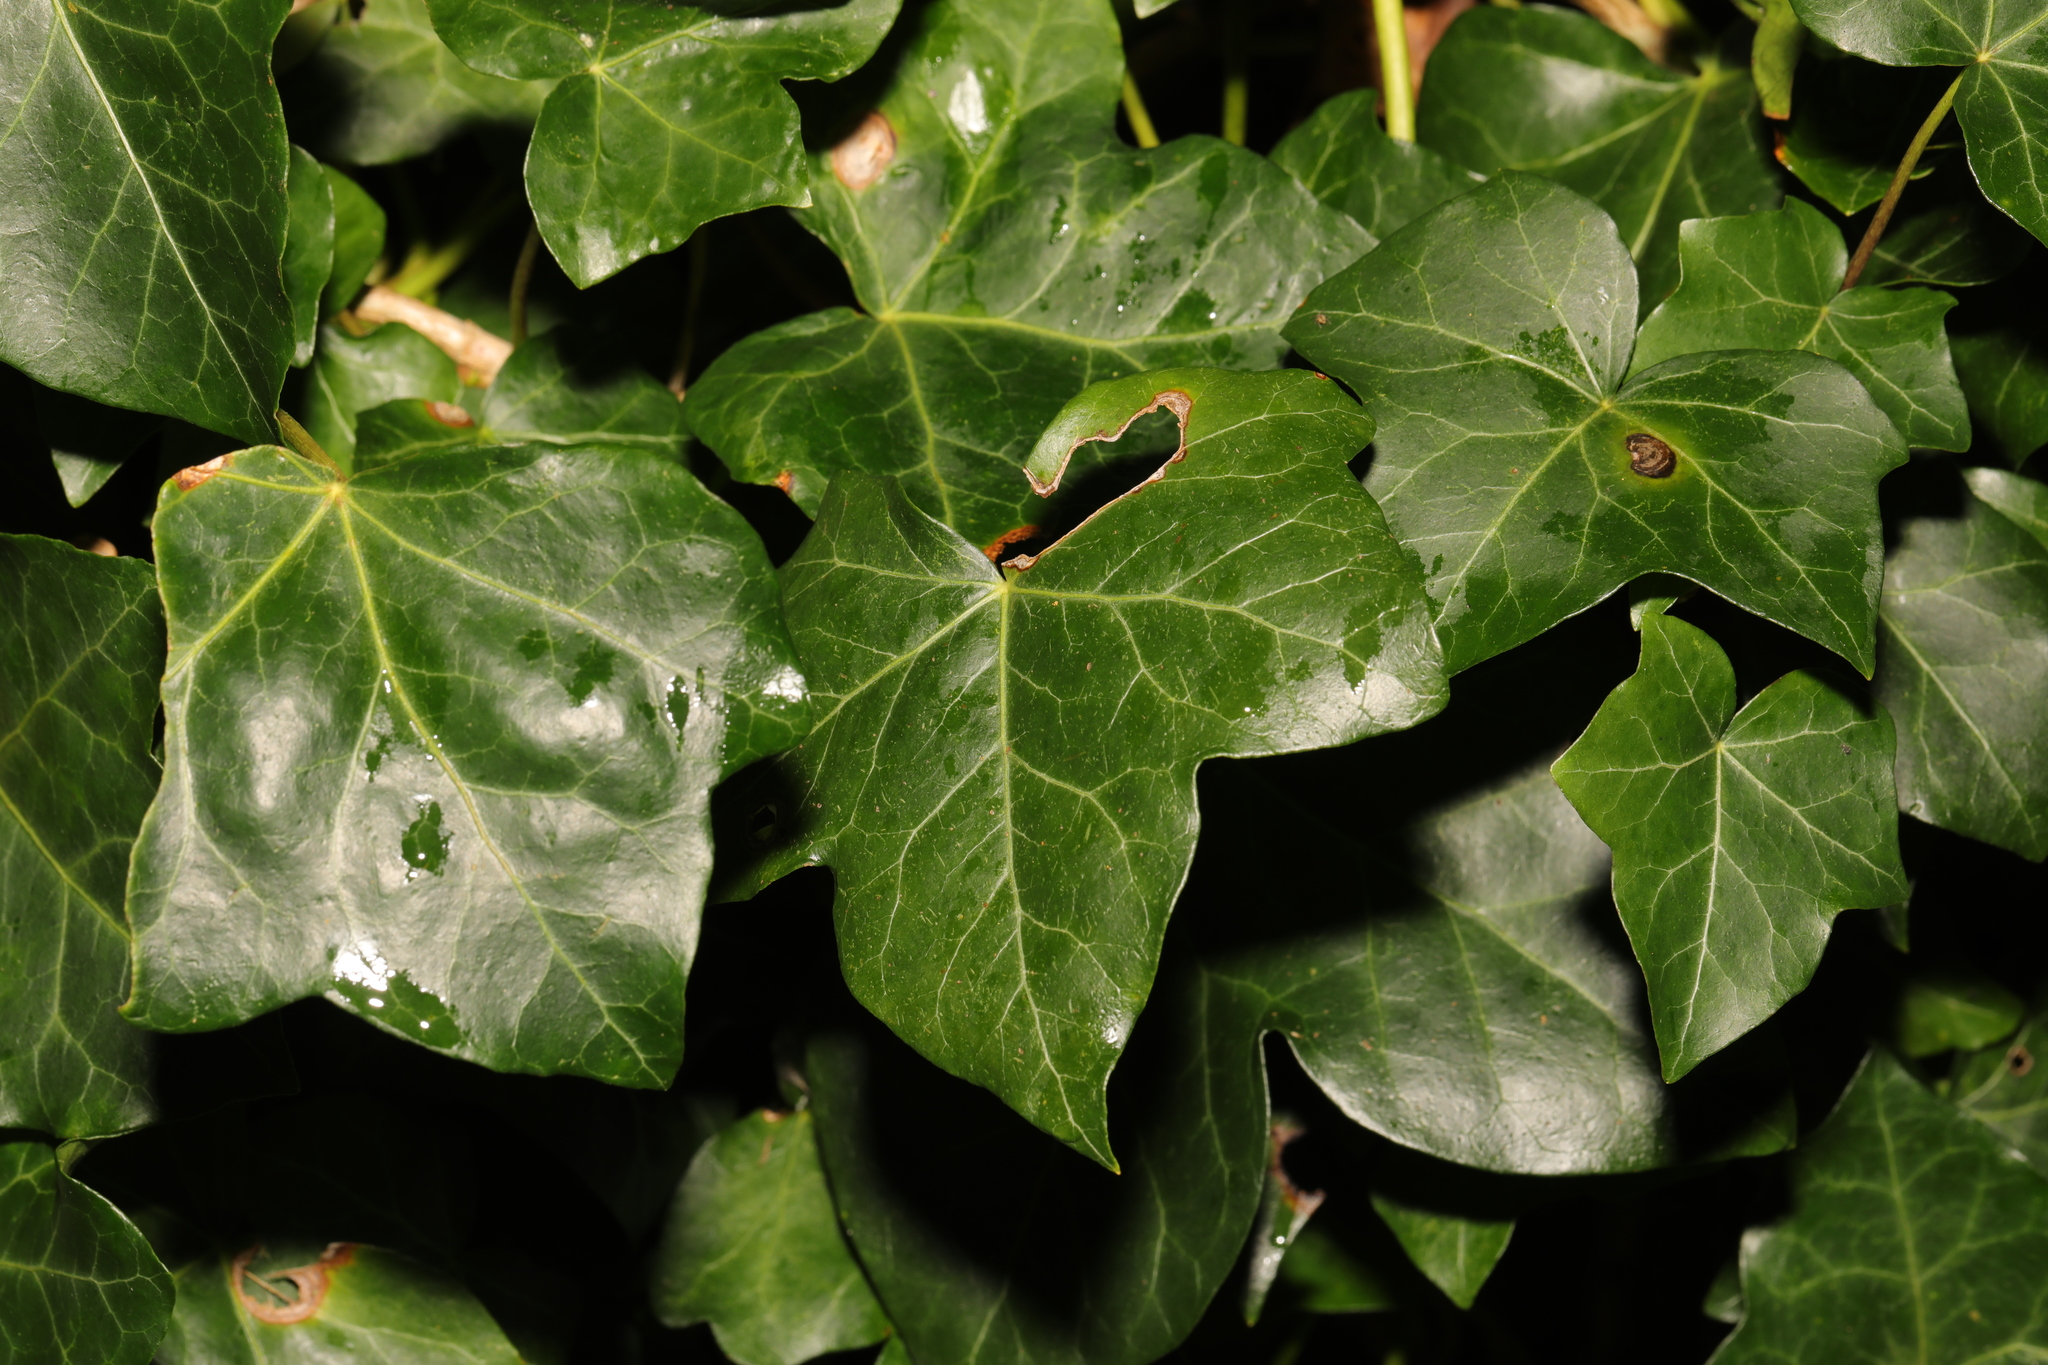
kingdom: Plantae
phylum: Tracheophyta
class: Magnoliopsida
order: Apiales
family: Araliaceae
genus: Hedera
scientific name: Hedera helix
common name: Ivy
